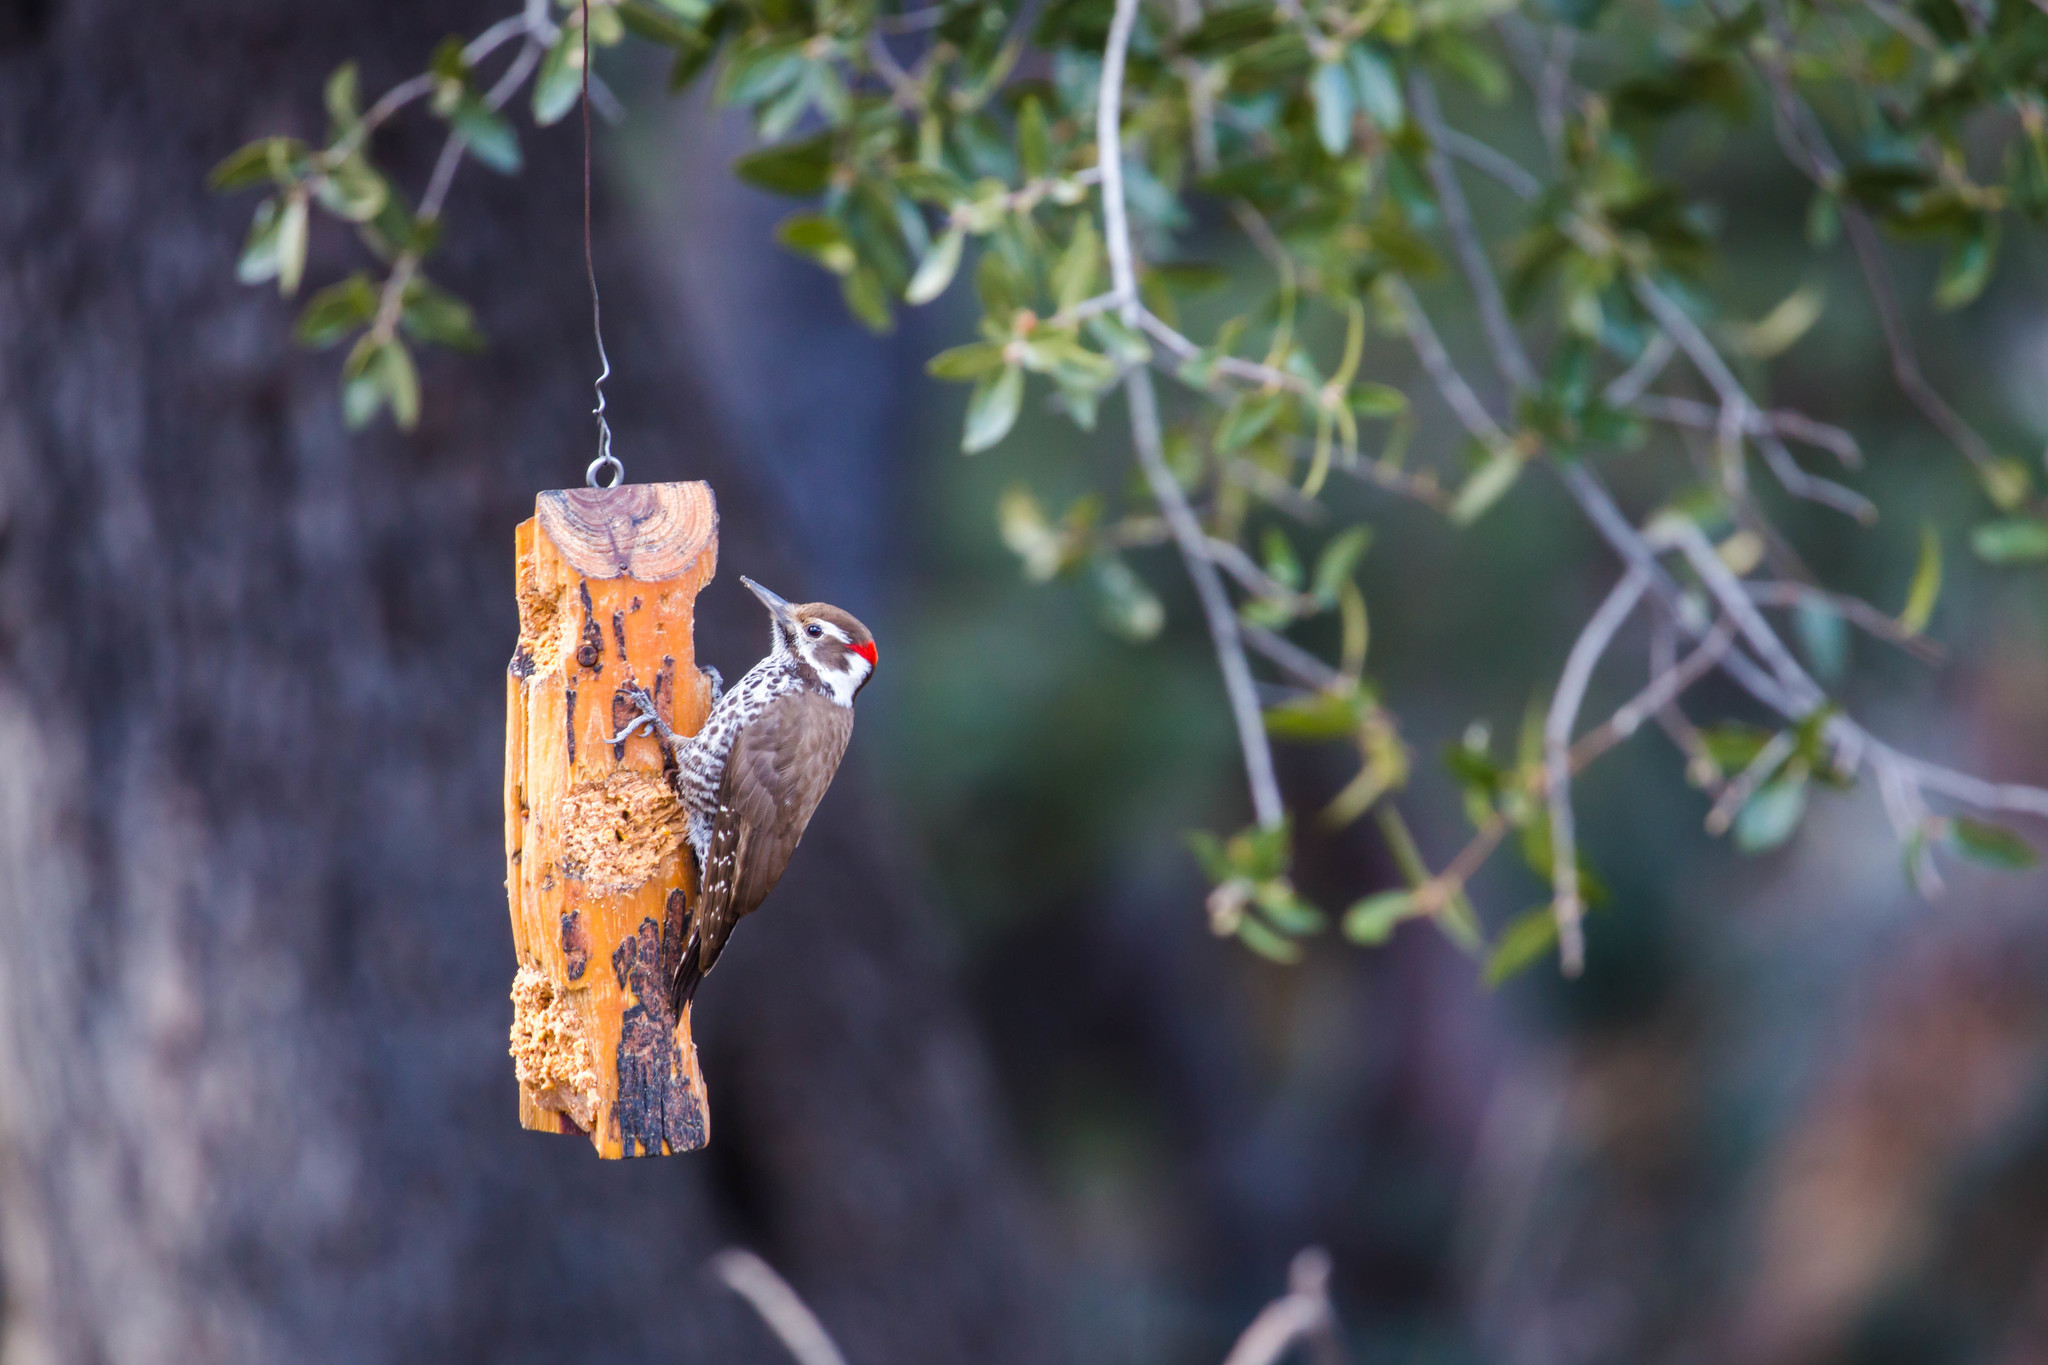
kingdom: Animalia
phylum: Chordata
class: Aves
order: Piciformes
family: Picidae
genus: Leuconotopicus
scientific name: Leuconotopicus arizonae
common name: Arizona woodpecker
